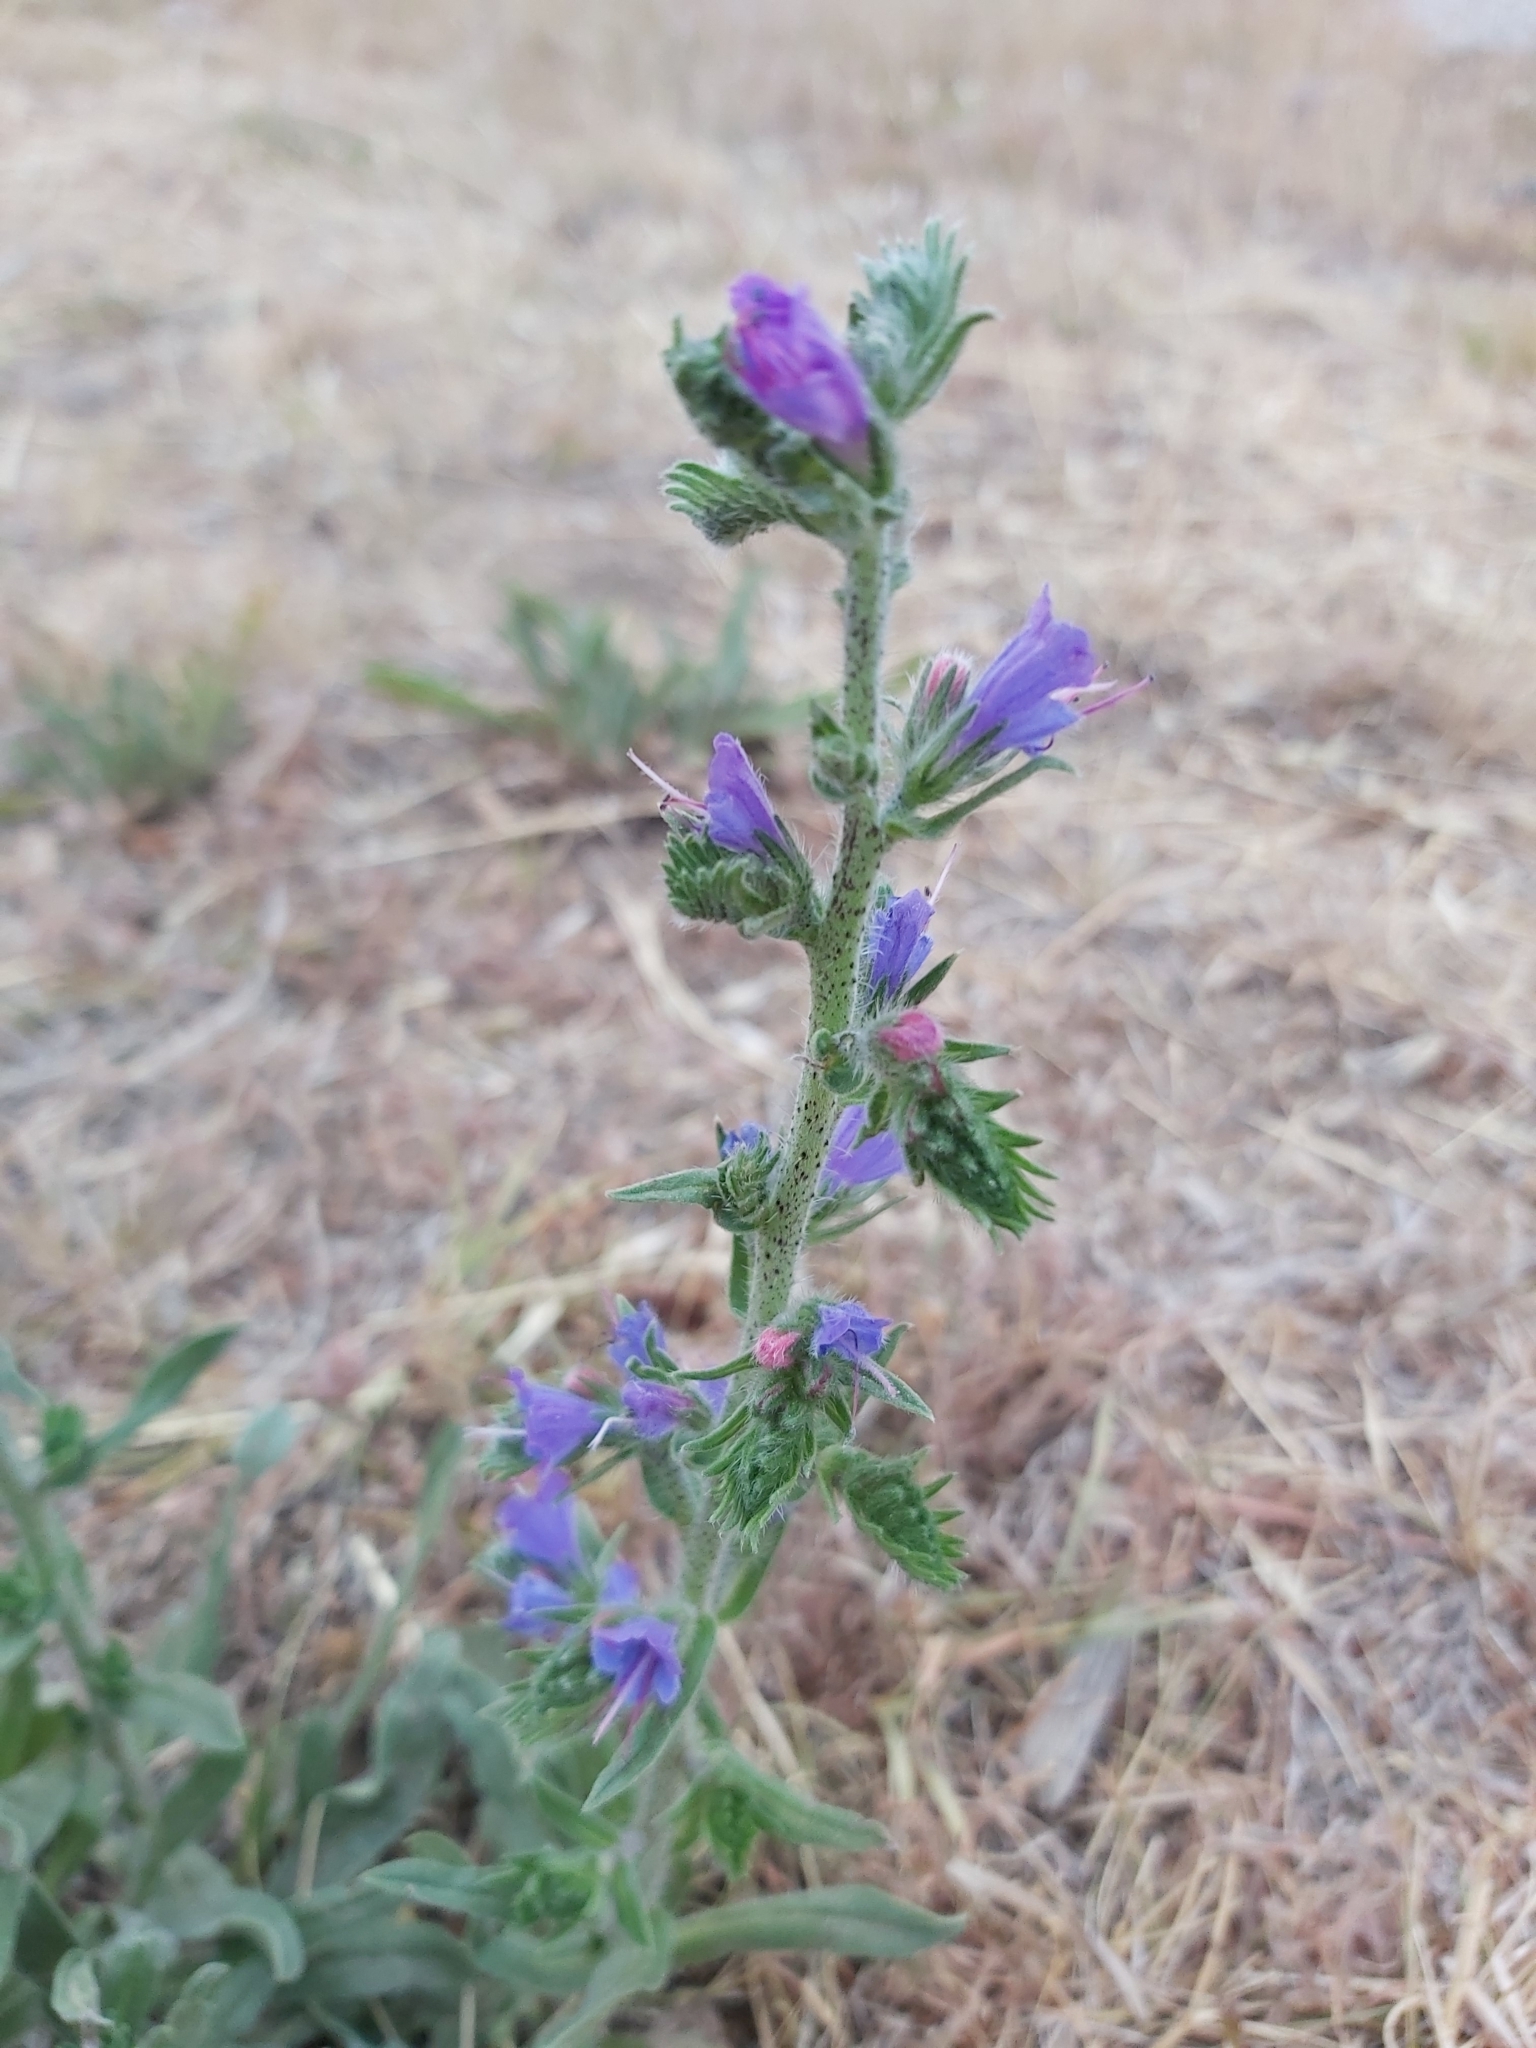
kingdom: Plantae
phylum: Tracheophyta
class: Magnoliopsida
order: Boraginales
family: Boraginaceae
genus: Echium
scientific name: Echium vulgare
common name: Common viper's bugloss
